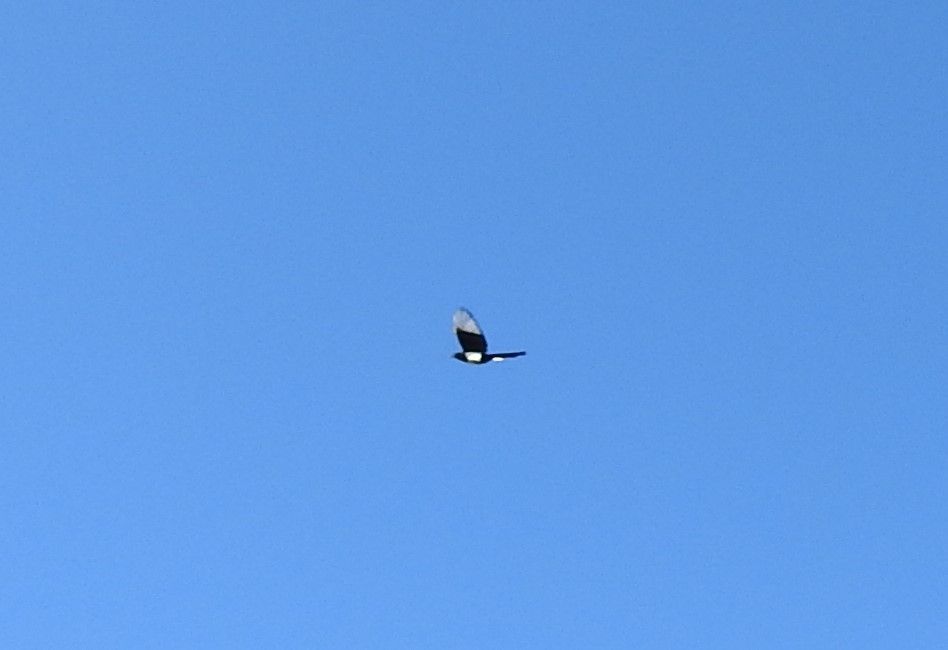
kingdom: Animalia
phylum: Chordata
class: Aves
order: Passeriformes
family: Corvidae
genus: Pica
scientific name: Pica pica
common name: Eurasian magpie
